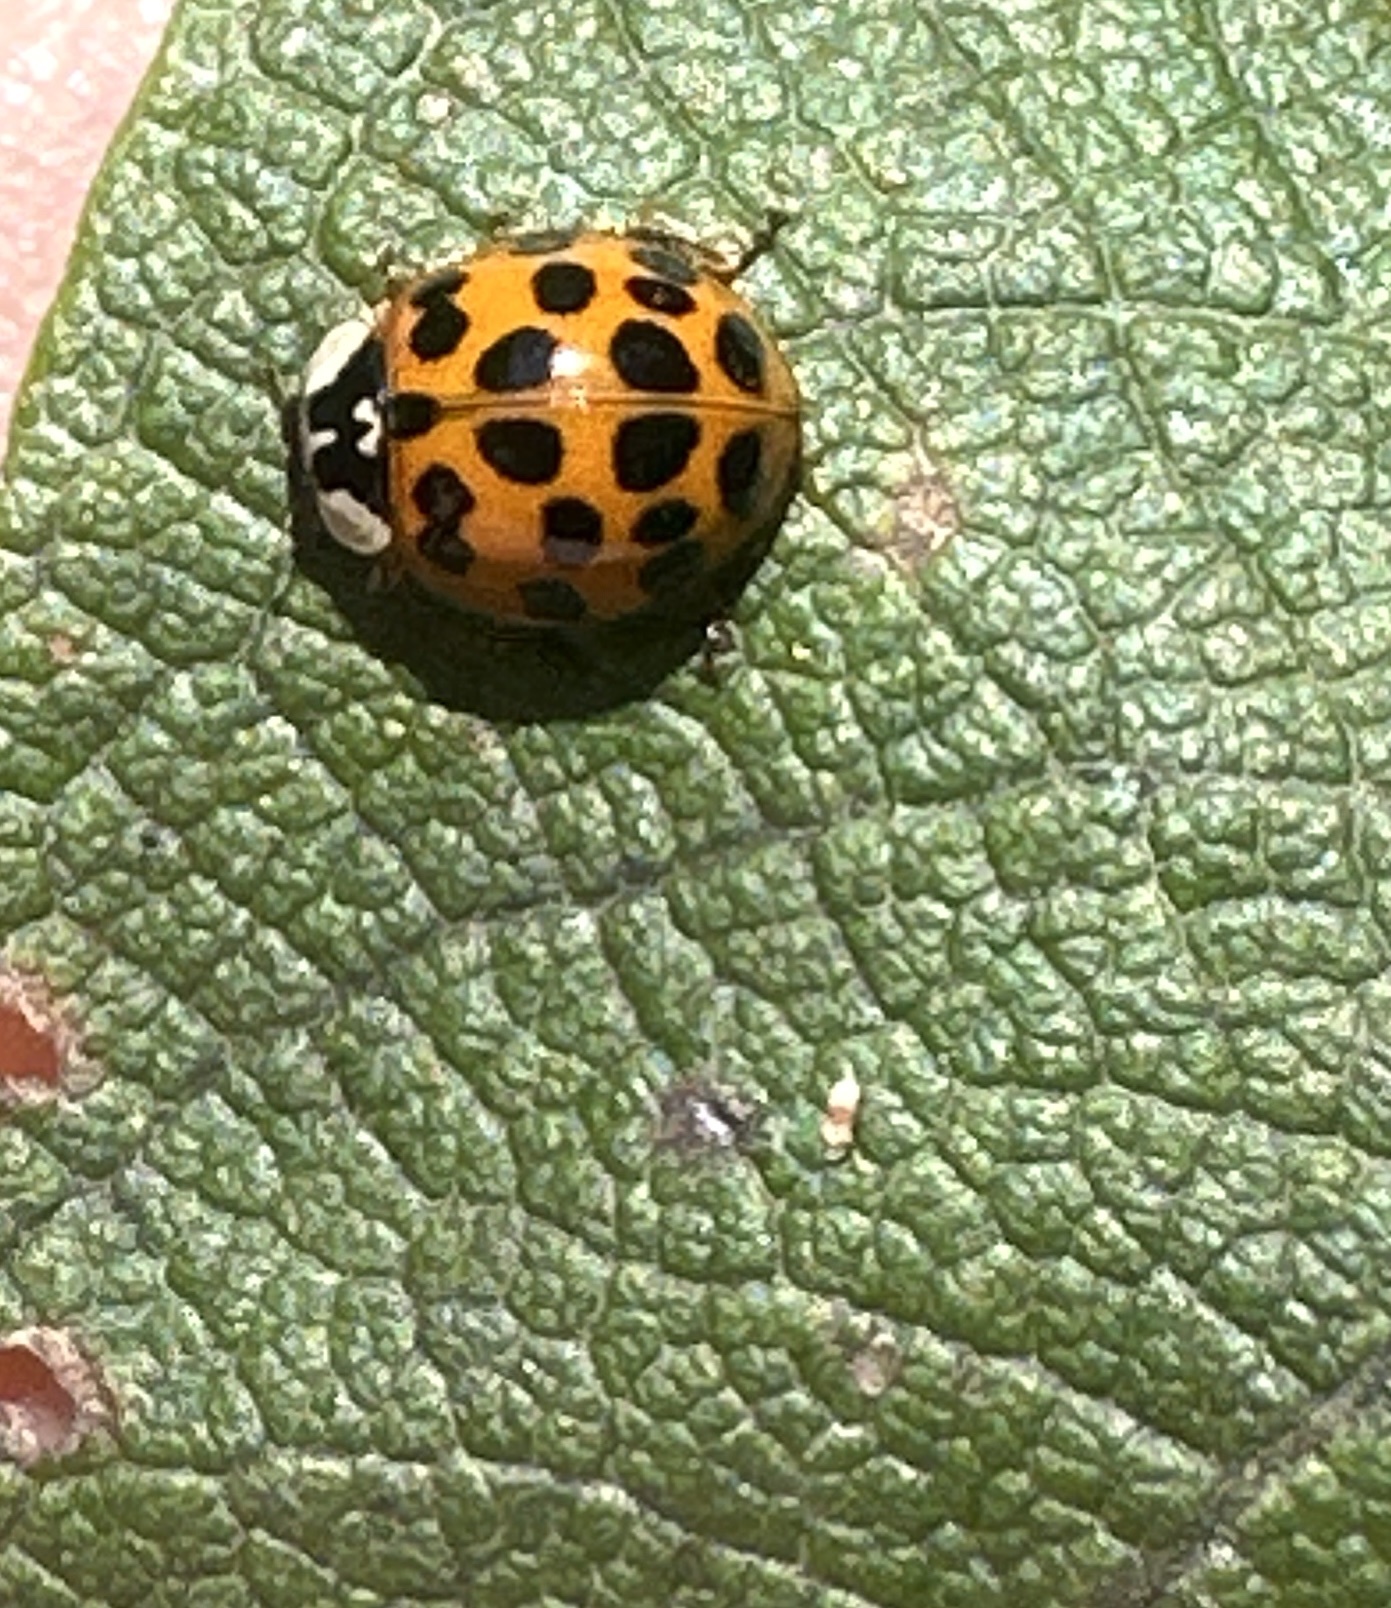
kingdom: Animalia
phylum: Arthropoda
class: Insecta
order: Coleoptera
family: Coccinellidae
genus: Harmonia
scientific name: Harmonia axyridis
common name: Harlequin ladybird
